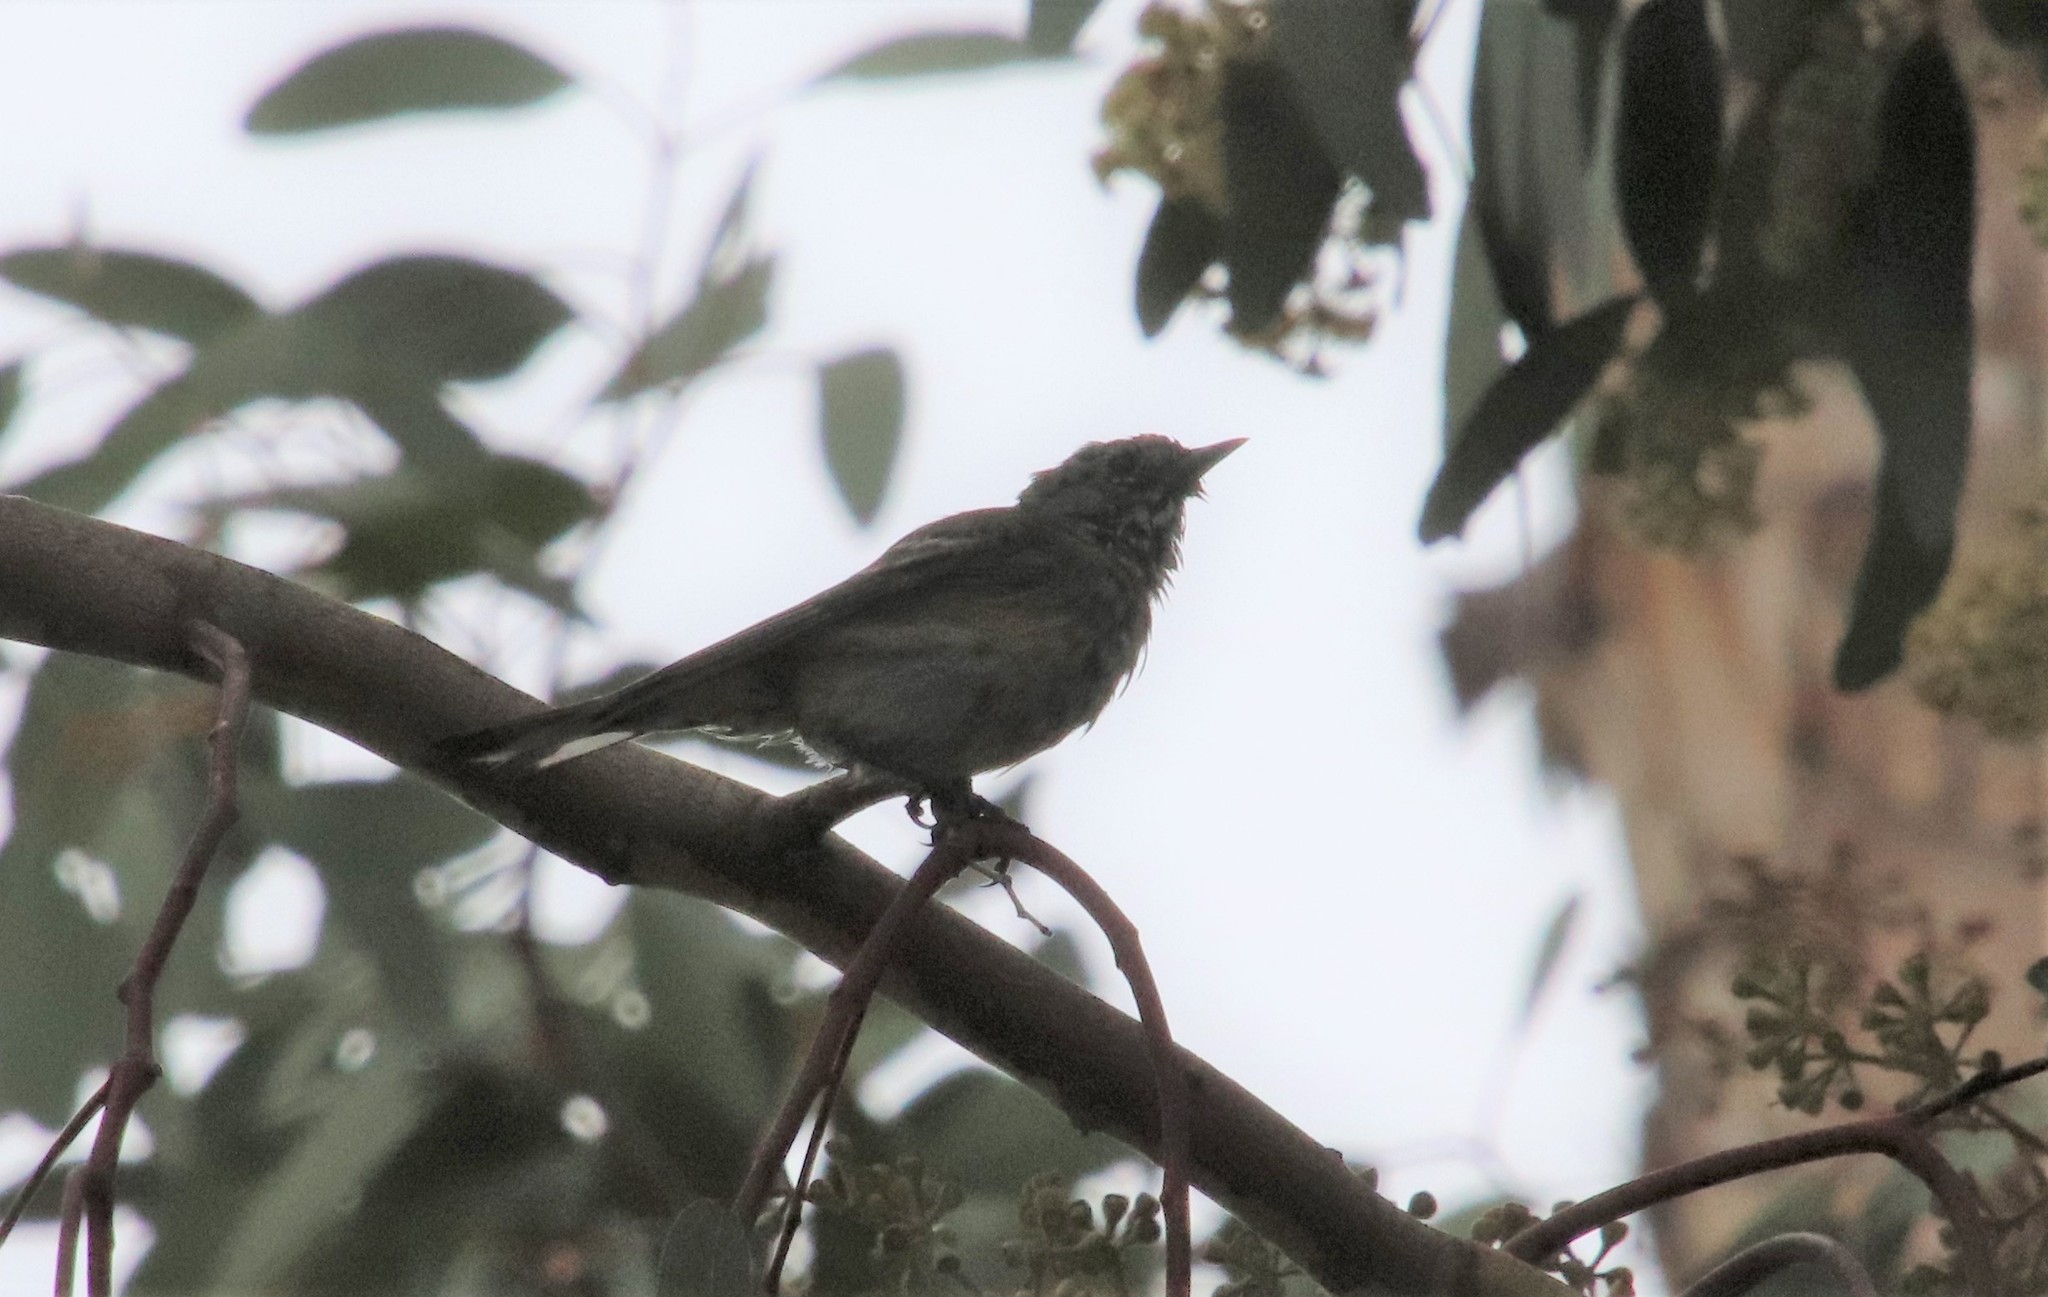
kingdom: Animalia
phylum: Chordata
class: Aves
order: Passeriformes
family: Parulidae
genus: Setophaga
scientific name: Setophaga coronata
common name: Myrtle warbler
